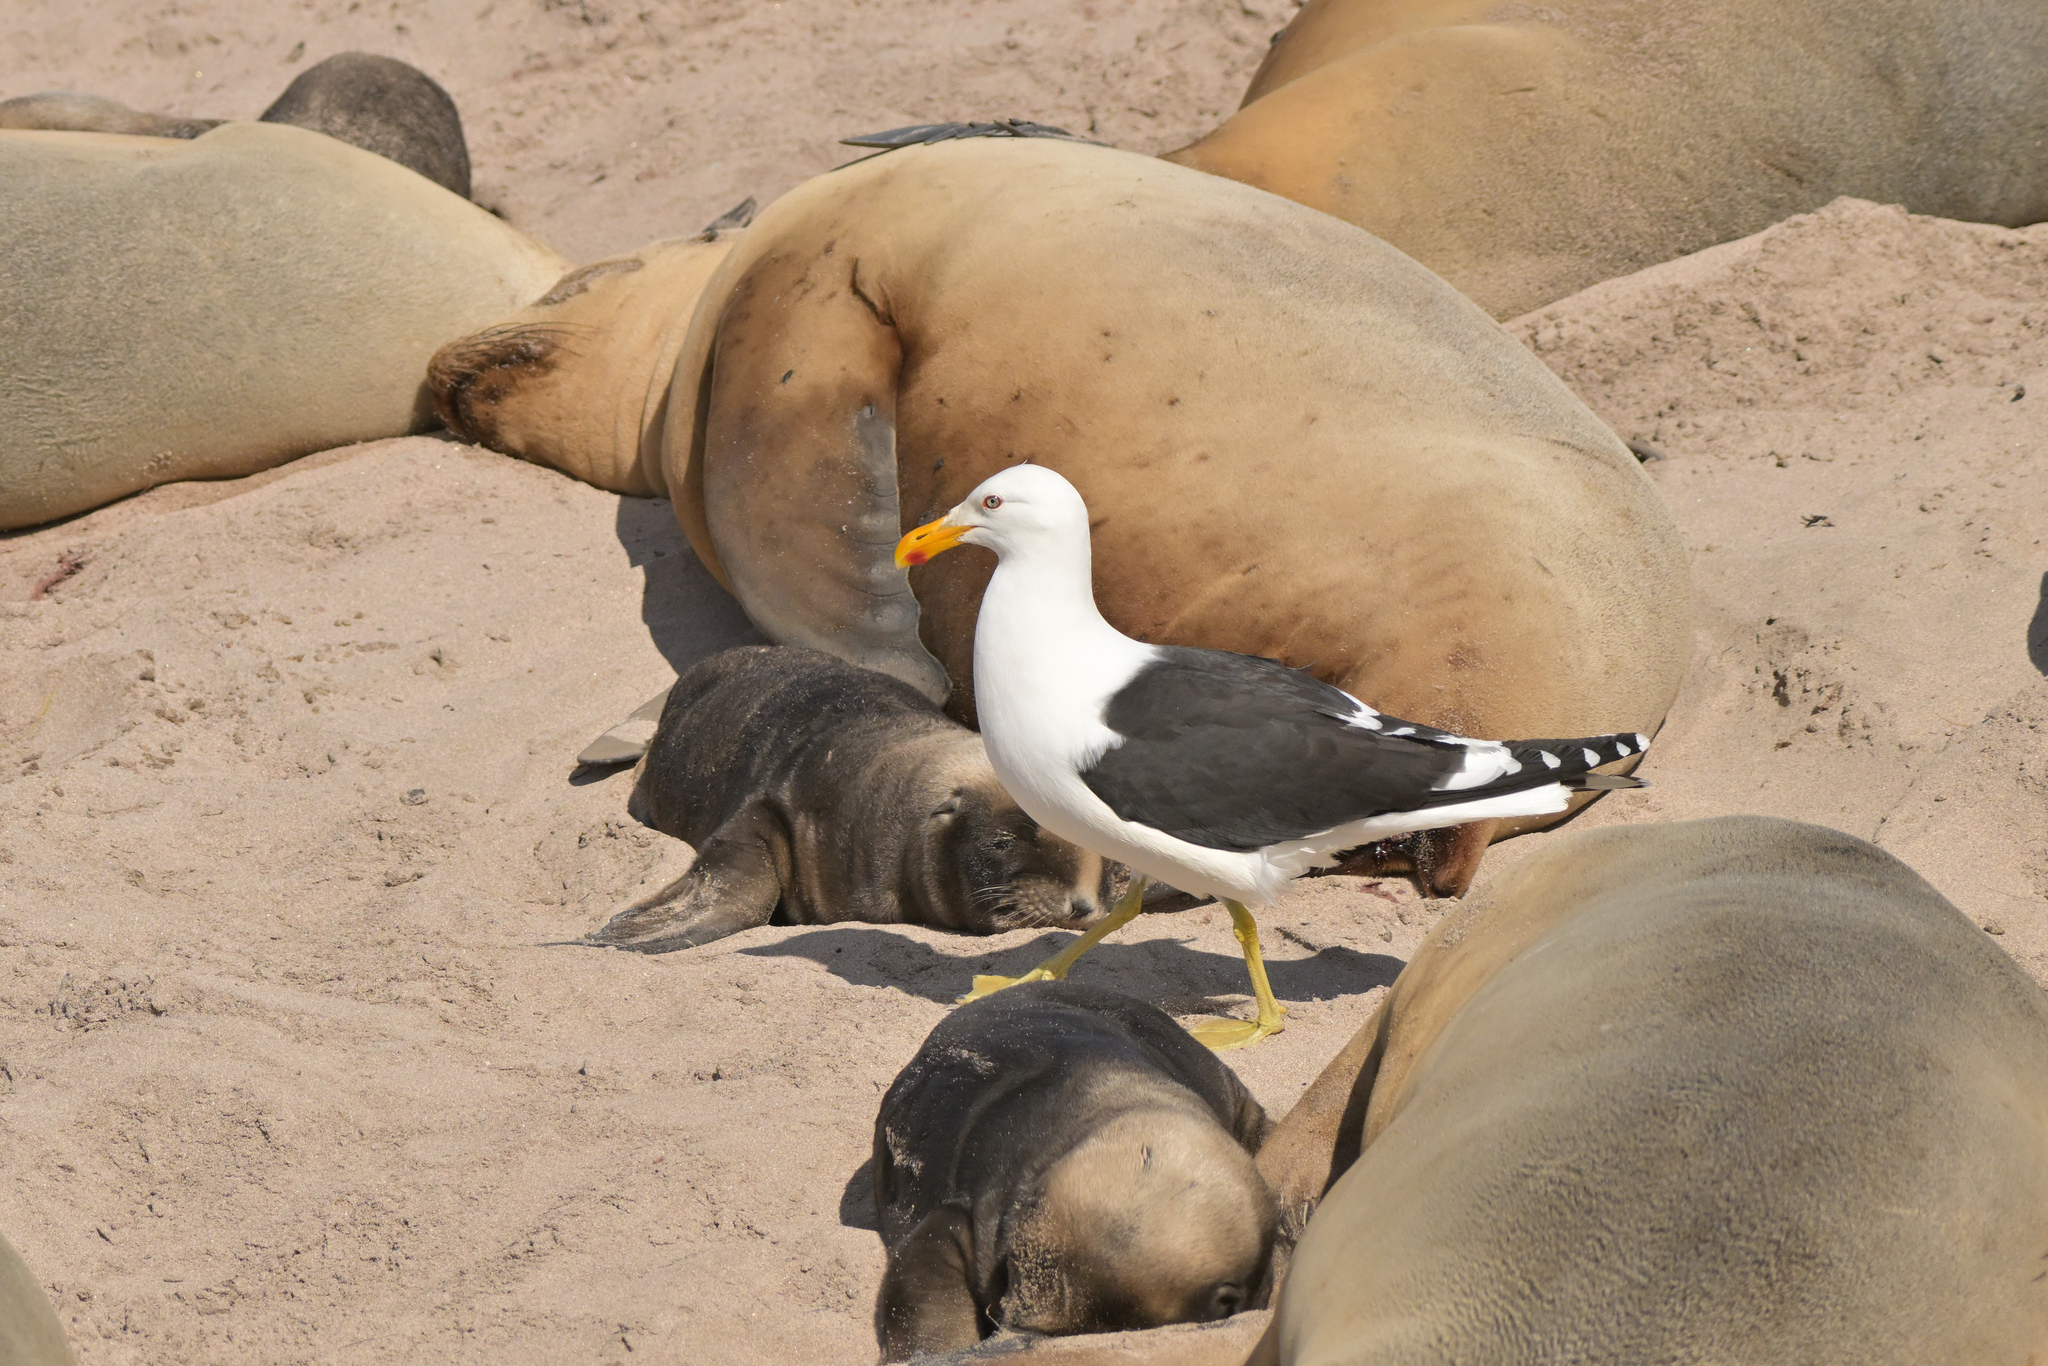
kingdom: Animalia
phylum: Chordata
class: Aves
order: Charadriiformes
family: Laridae
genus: Larus
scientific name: Larus dominicanus
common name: Kelp gull
